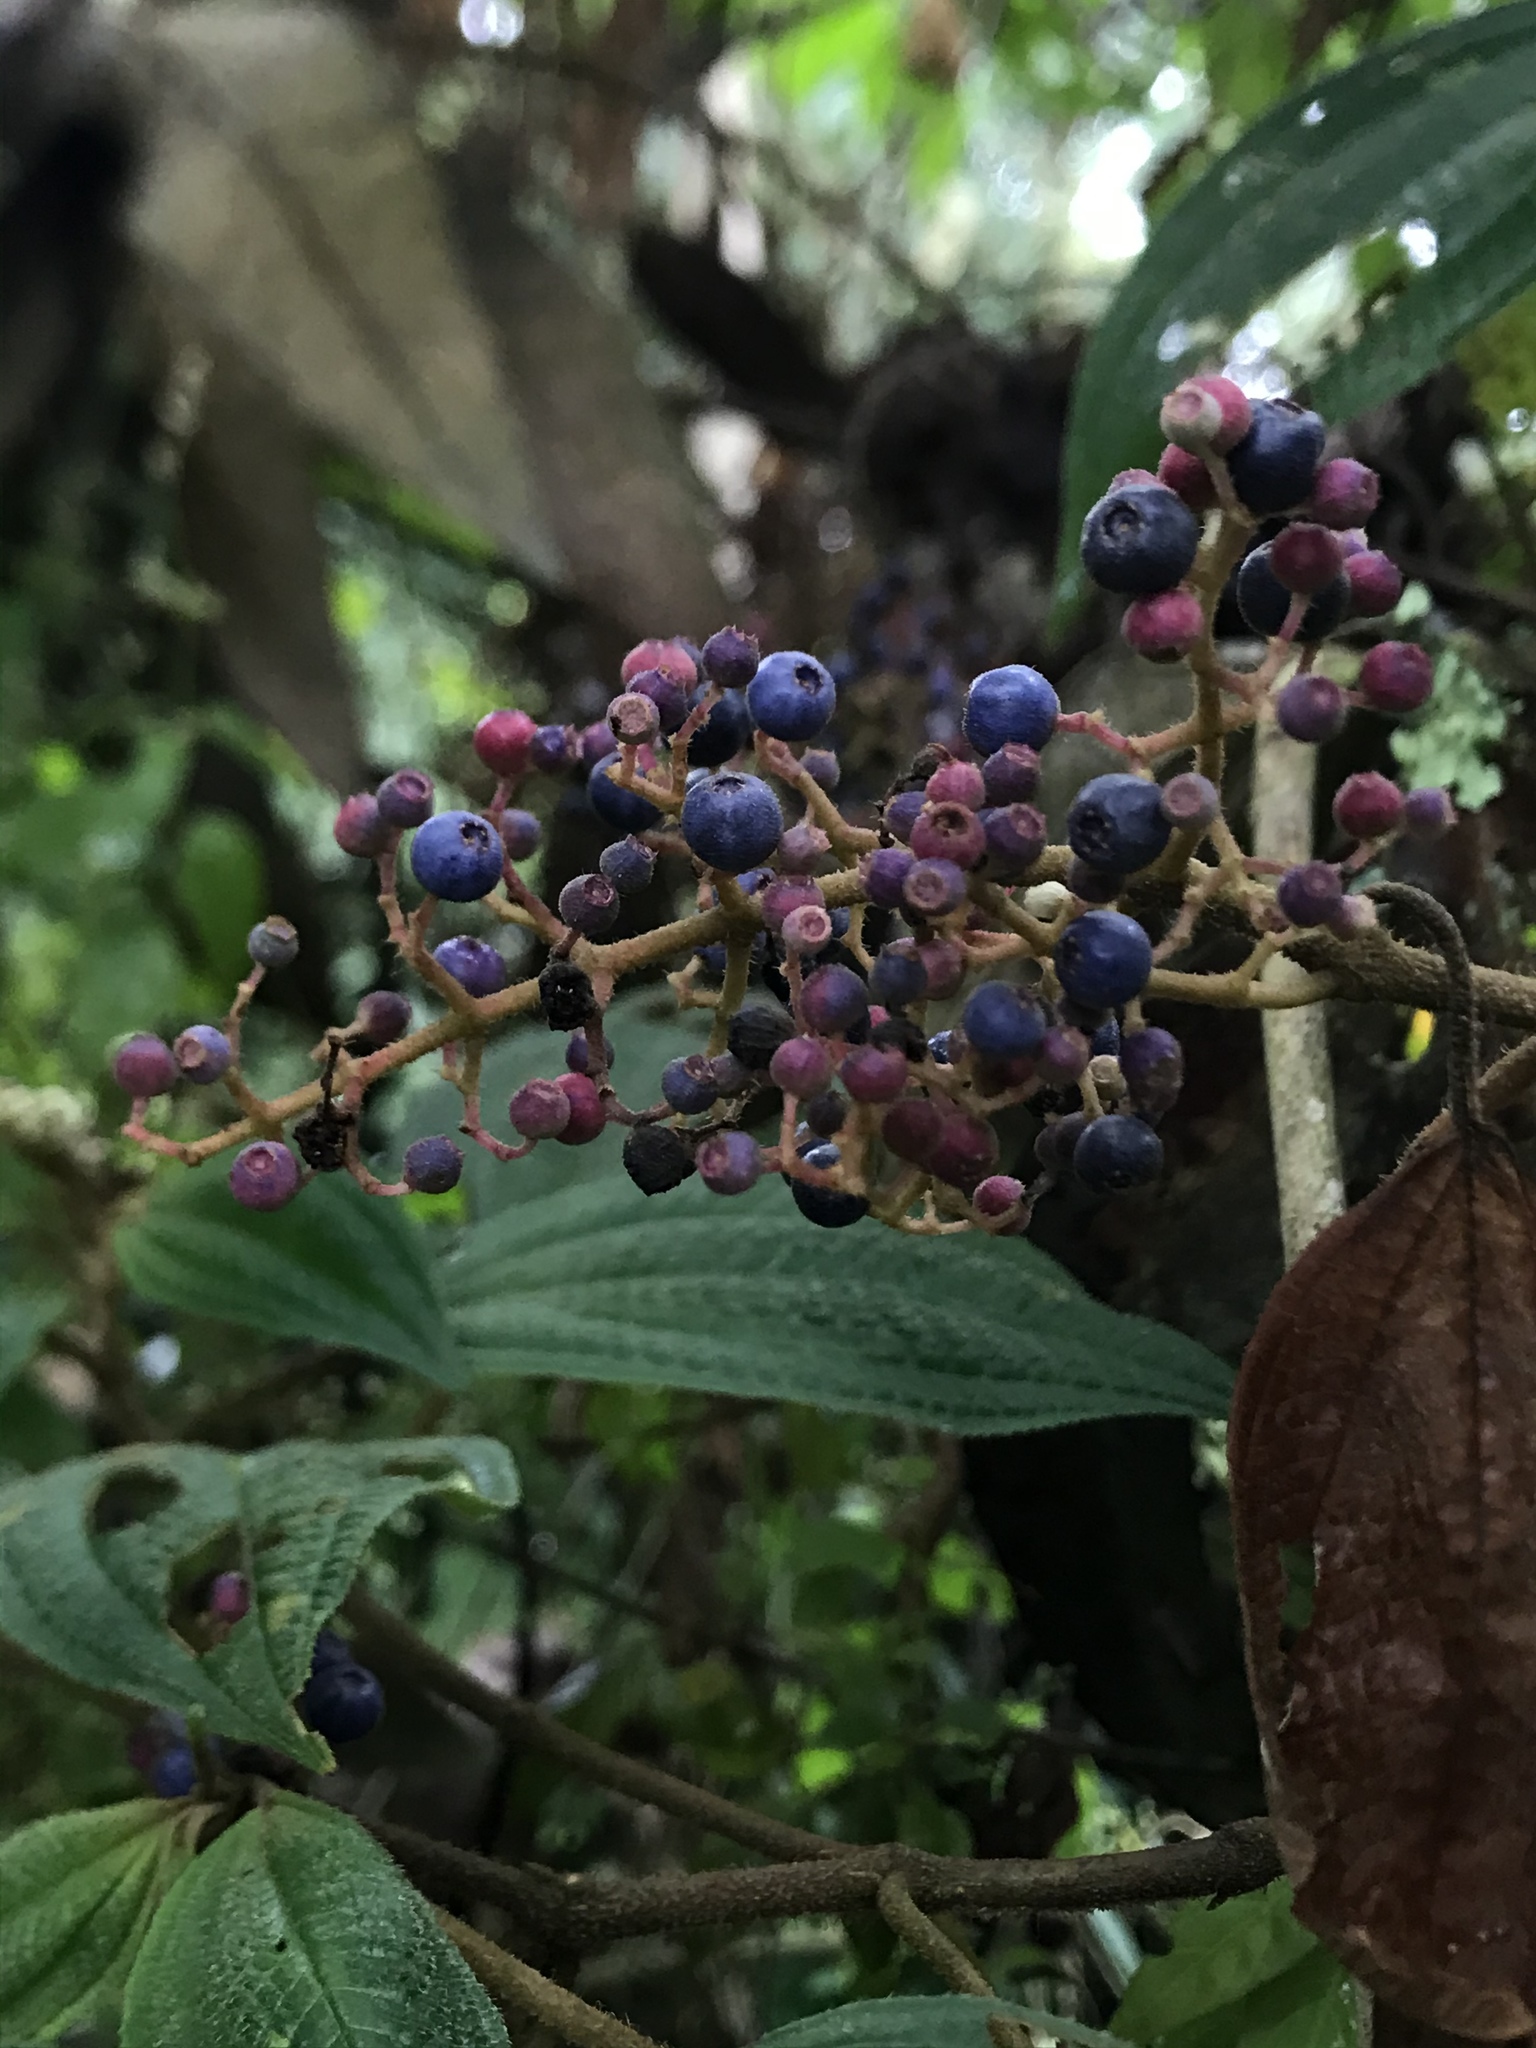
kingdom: Plantae
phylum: Tracheophyta
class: Magnoliopsida
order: Myrtales
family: Melastomataceae
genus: Miconia
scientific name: Miconia subseriata
